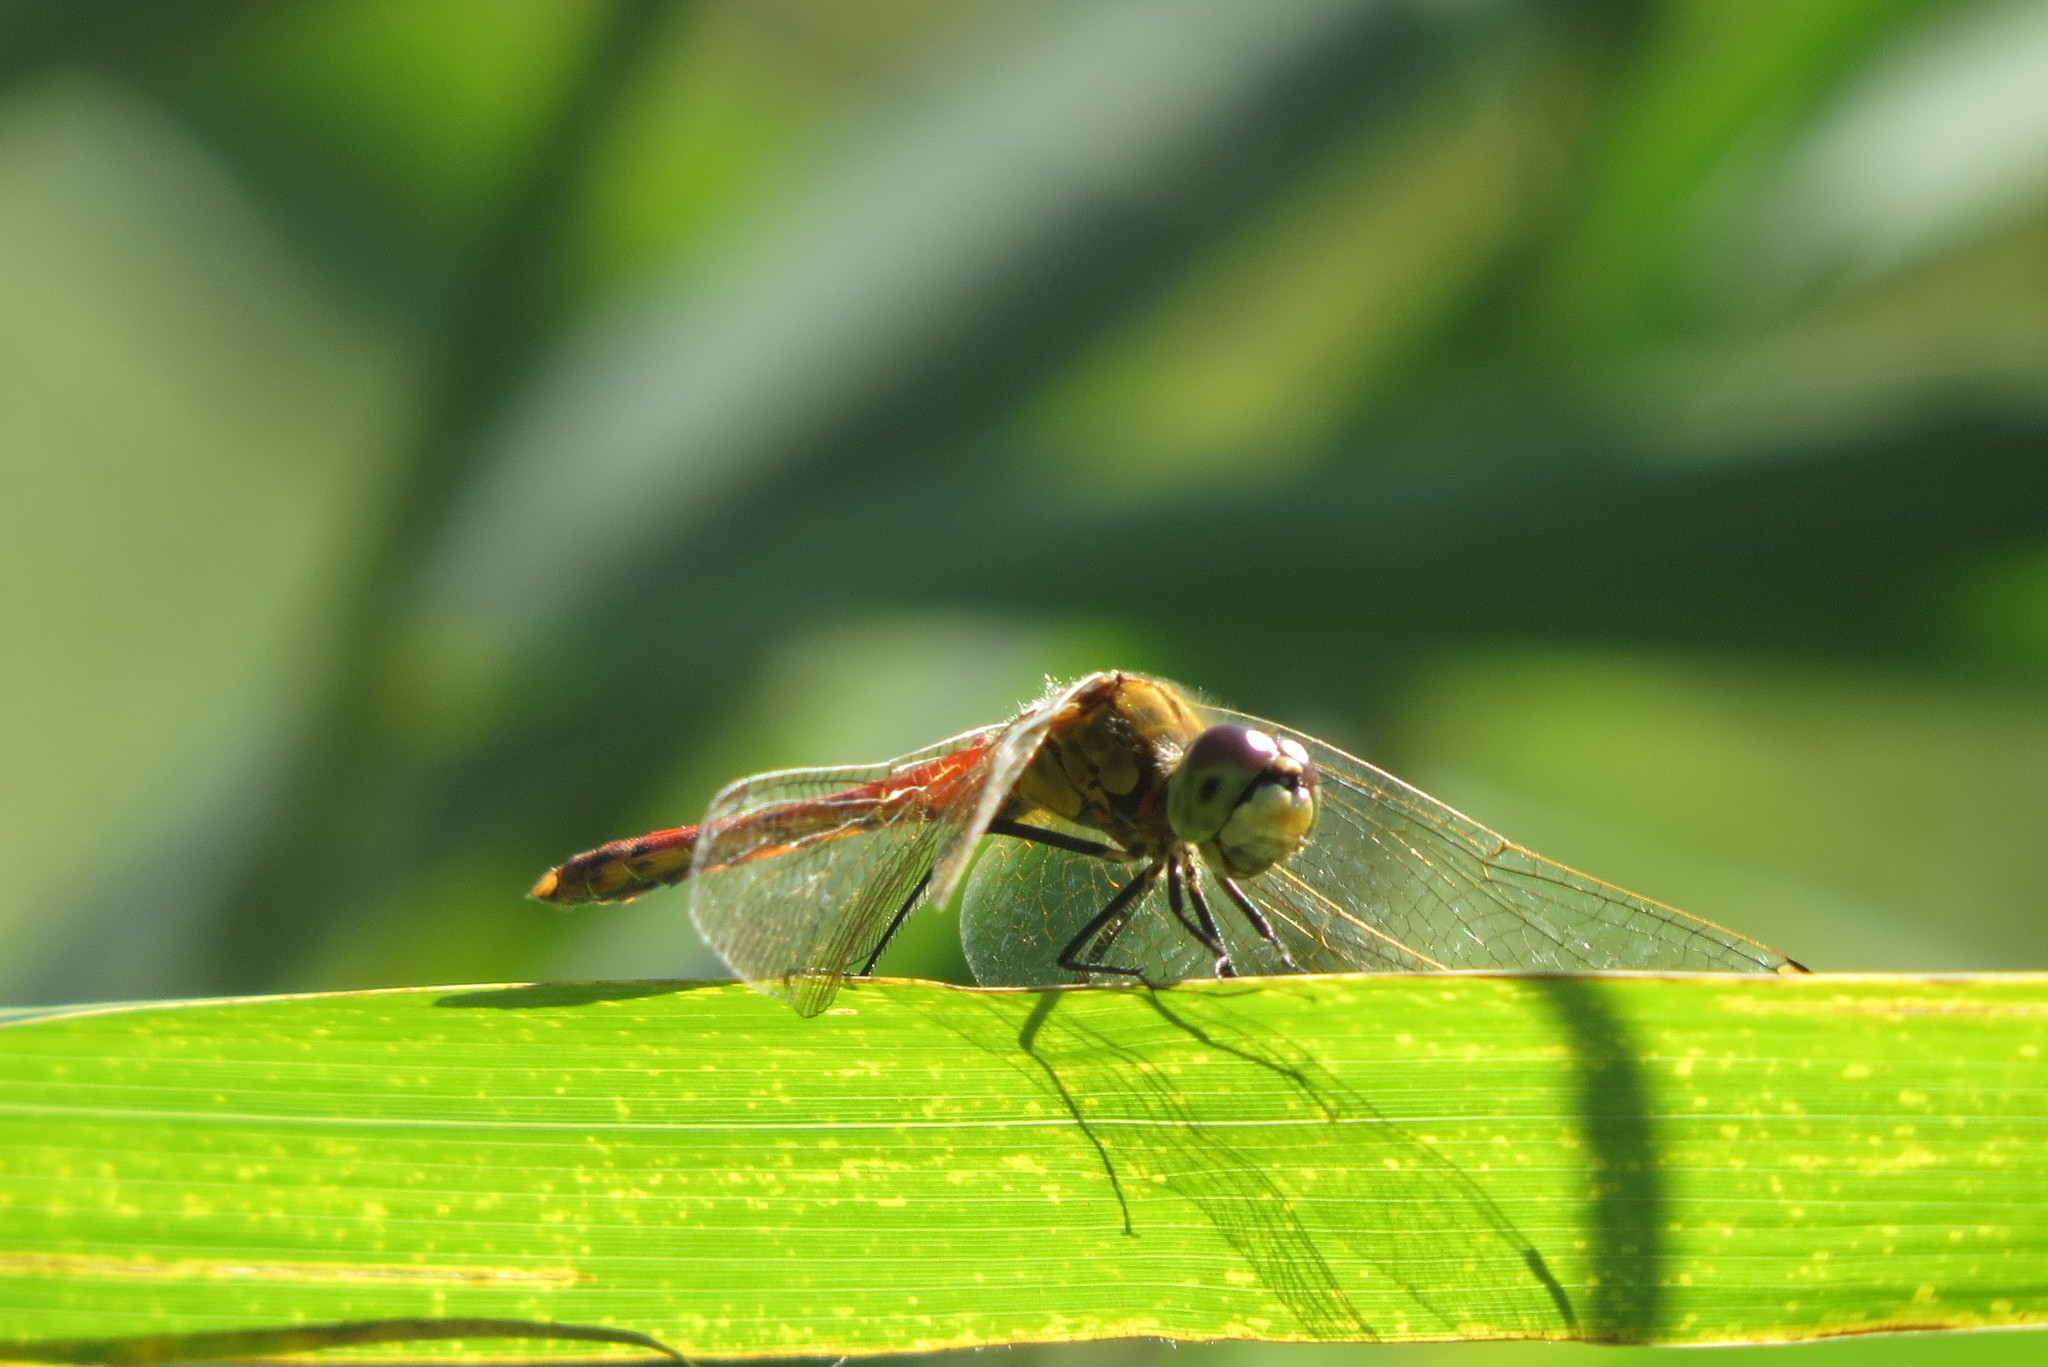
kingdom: Animalia
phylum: Arthropoda
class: Insecta
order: Odonata
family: Libellulidae
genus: Sympetrum
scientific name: Sympetrum depressiusculum
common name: Spotted darter
